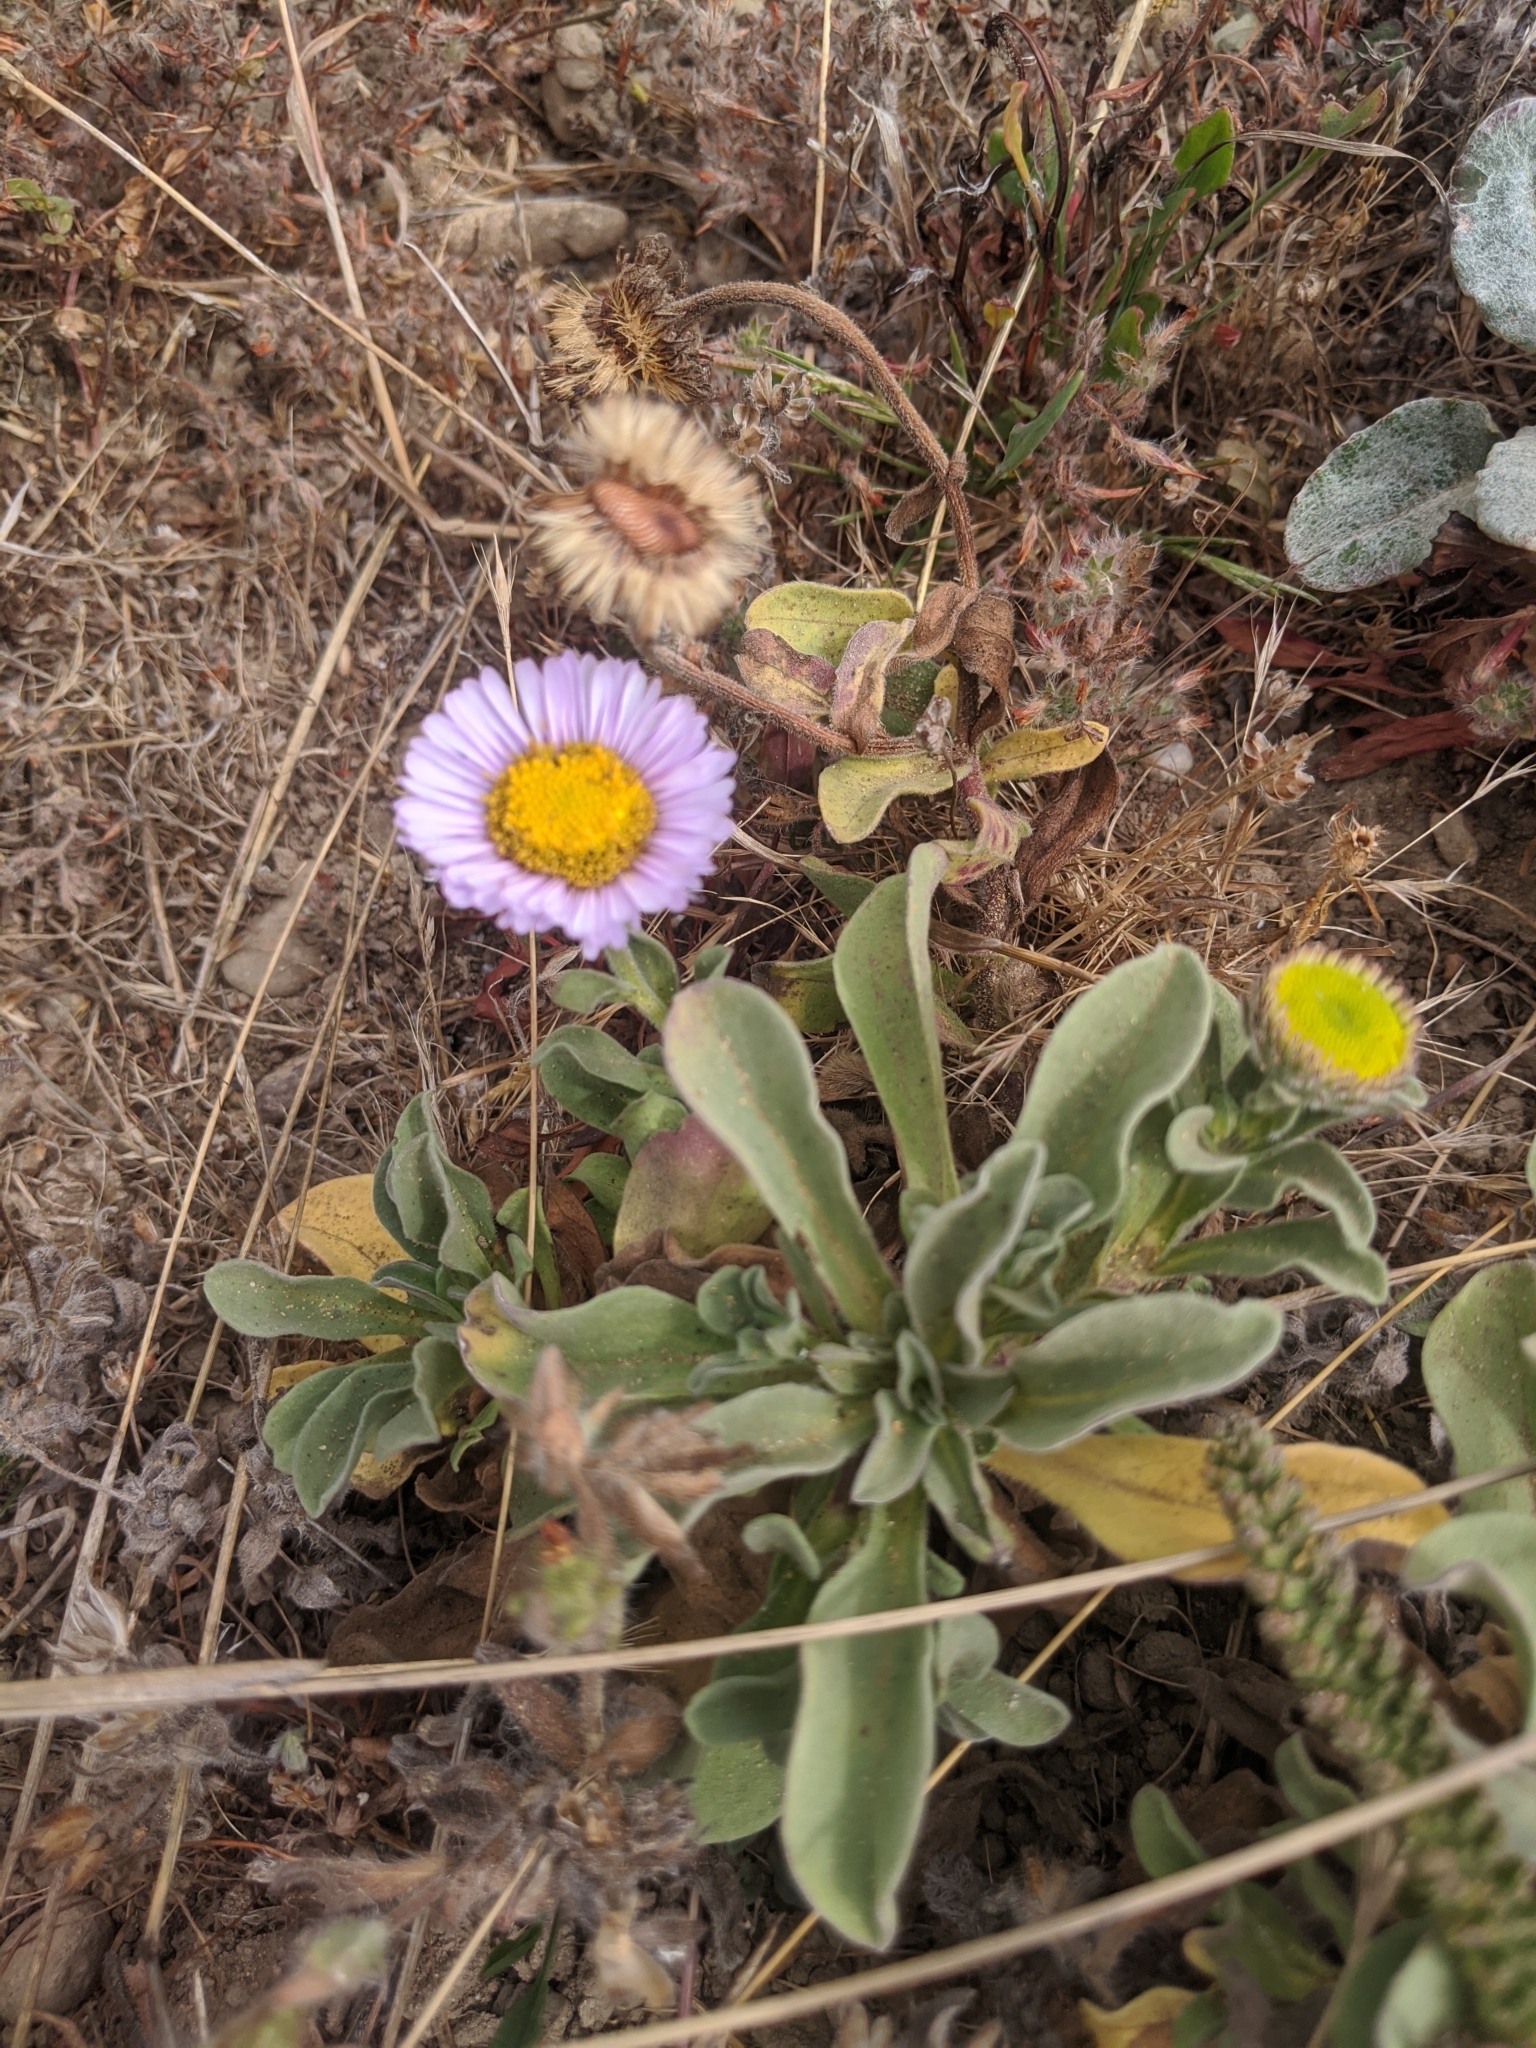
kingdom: Plantae
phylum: Tracheophyta
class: Magnoliopsida
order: Asterales
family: Asteraceae
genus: Erigeron
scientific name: Erigeron glaucus
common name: Seaside daisy
